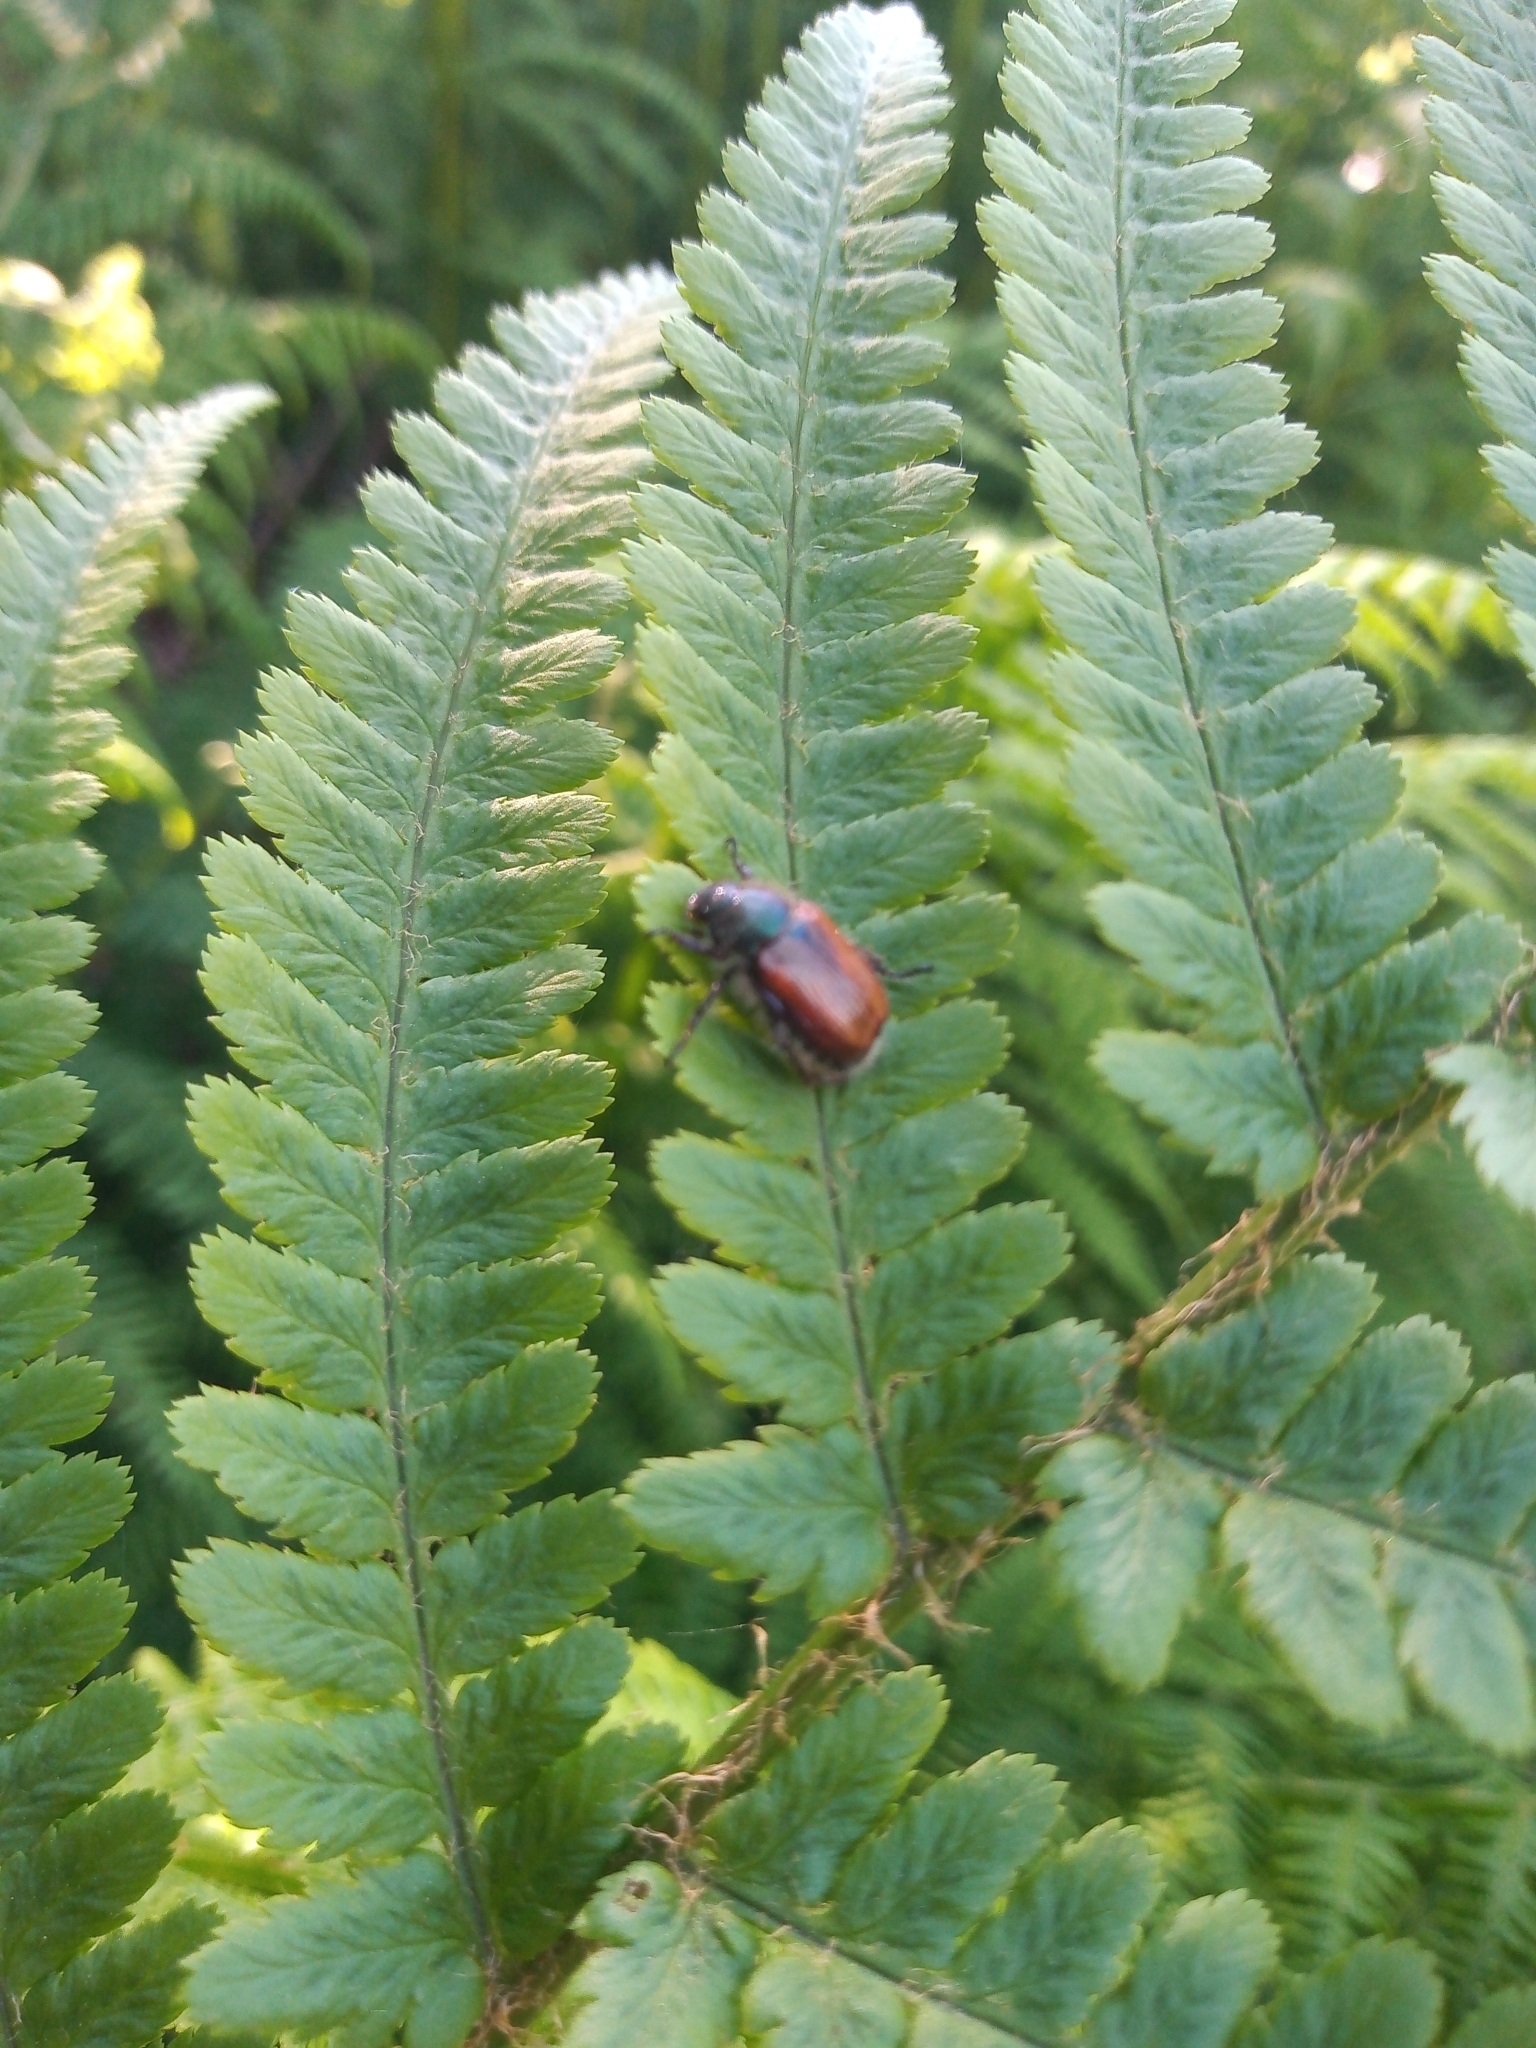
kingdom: Animalia
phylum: Arthropoda
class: Insecta
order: Coleoptera
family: Scarabaeidae
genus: Phyllopertha
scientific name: Phyllopertha horticola
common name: Garden chafer
